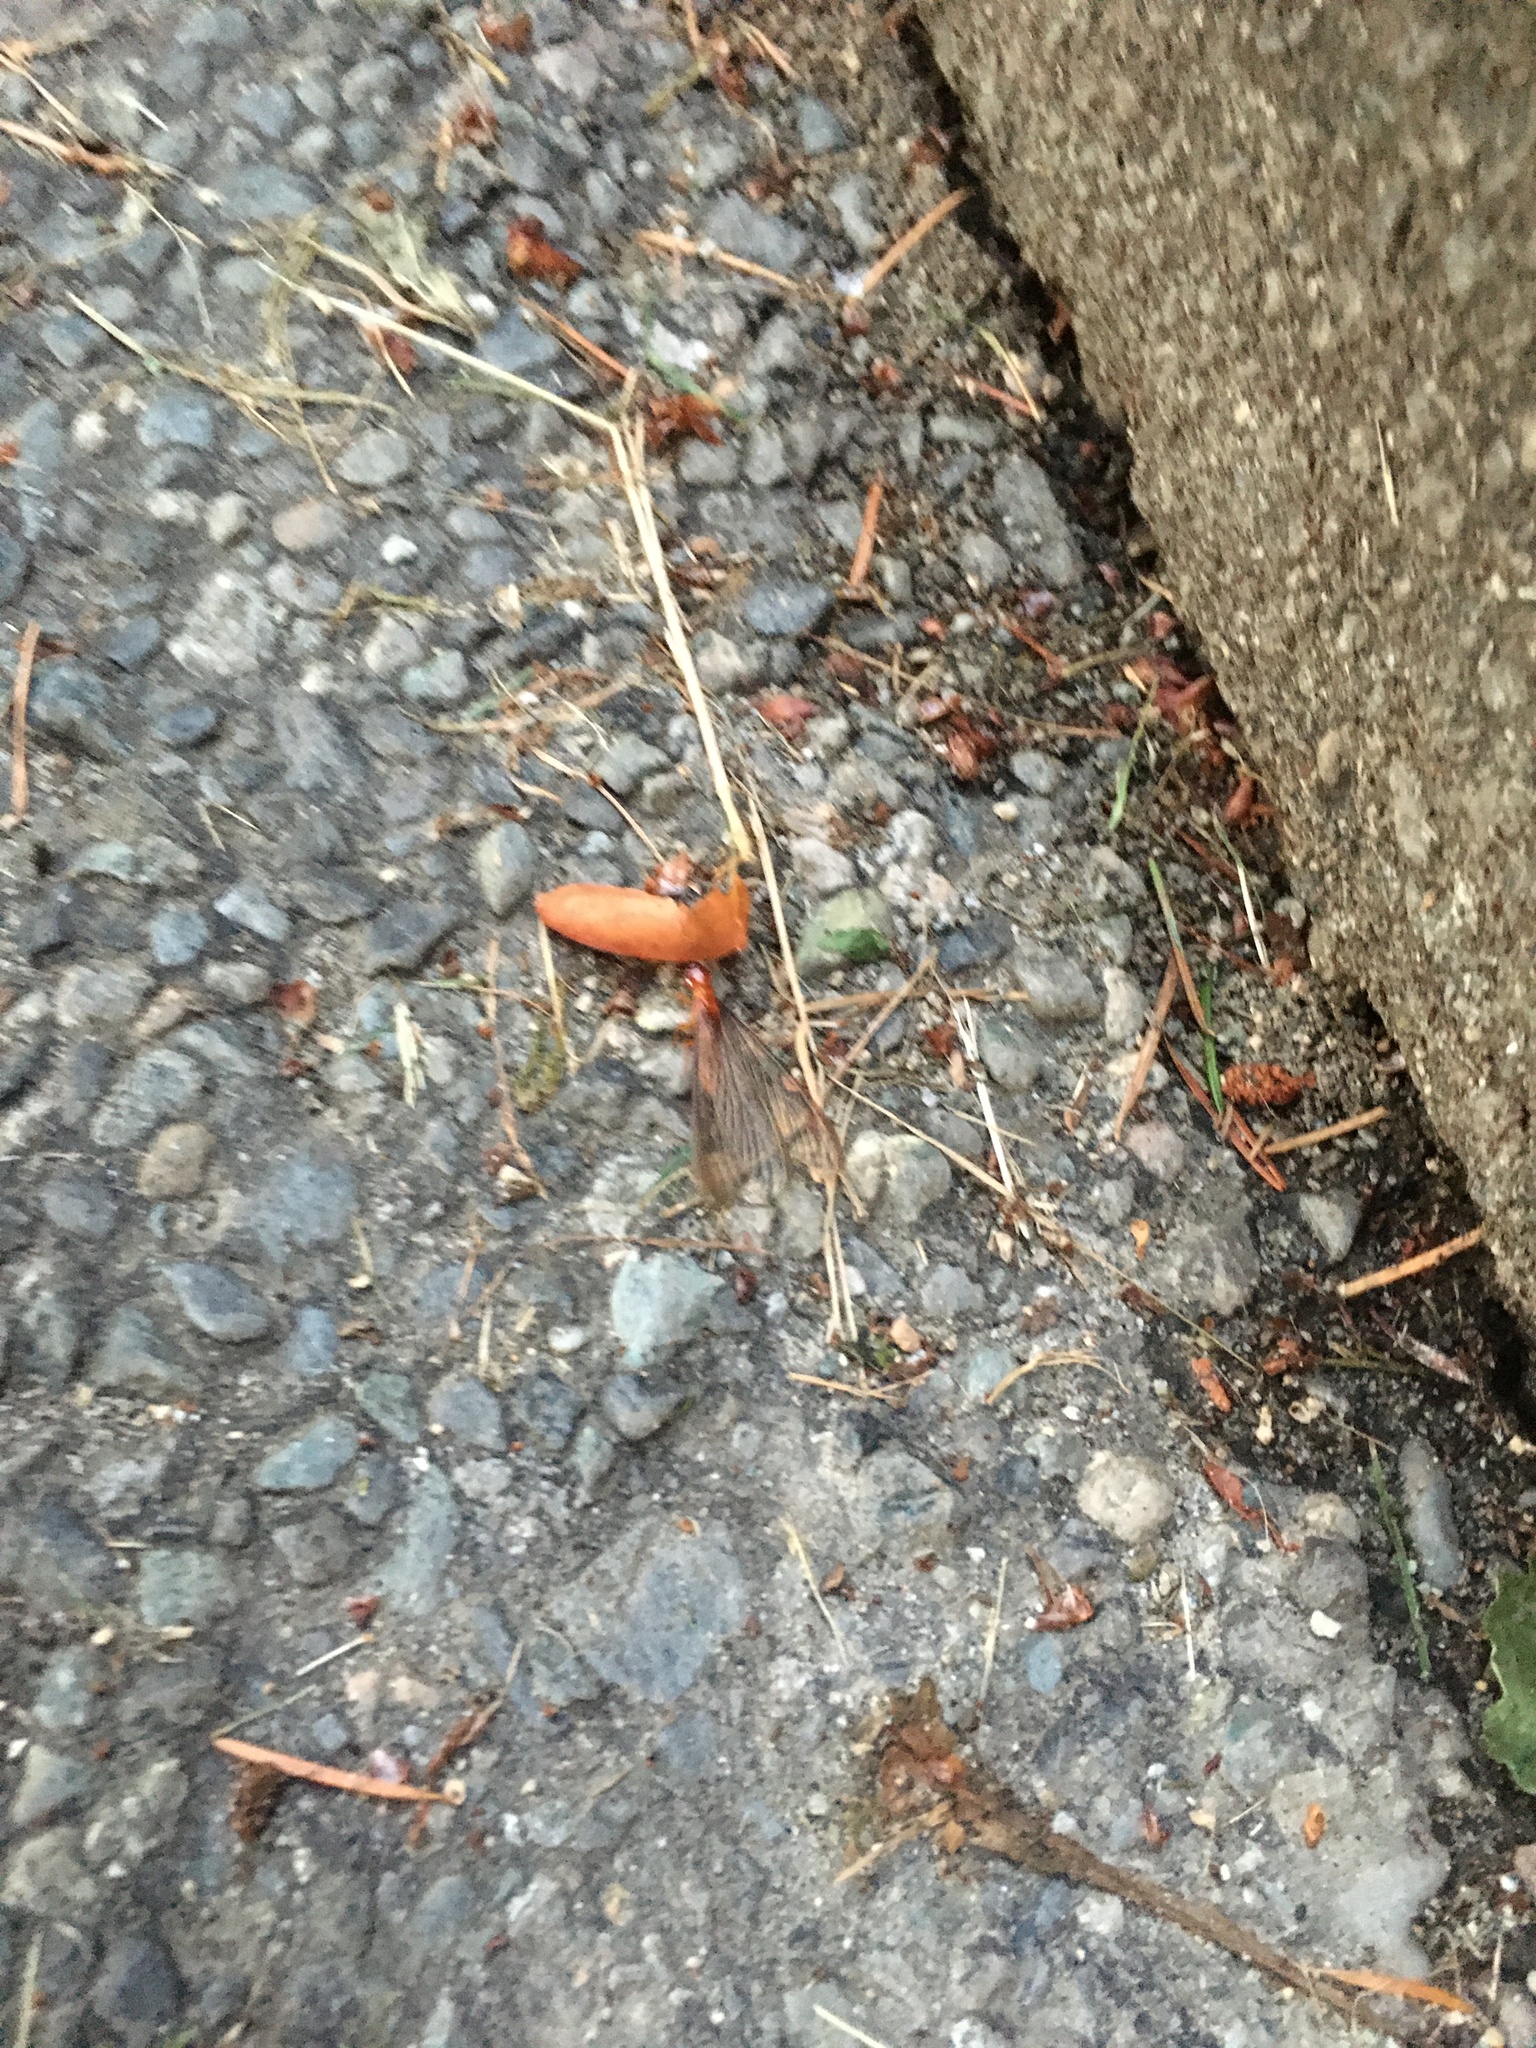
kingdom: Animalia
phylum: Arthropoda
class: Insecta
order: Blattodea
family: Archotermopsidae
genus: Zootermopsis
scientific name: Zootermopsis angusticollis
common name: Rottenwood termite
